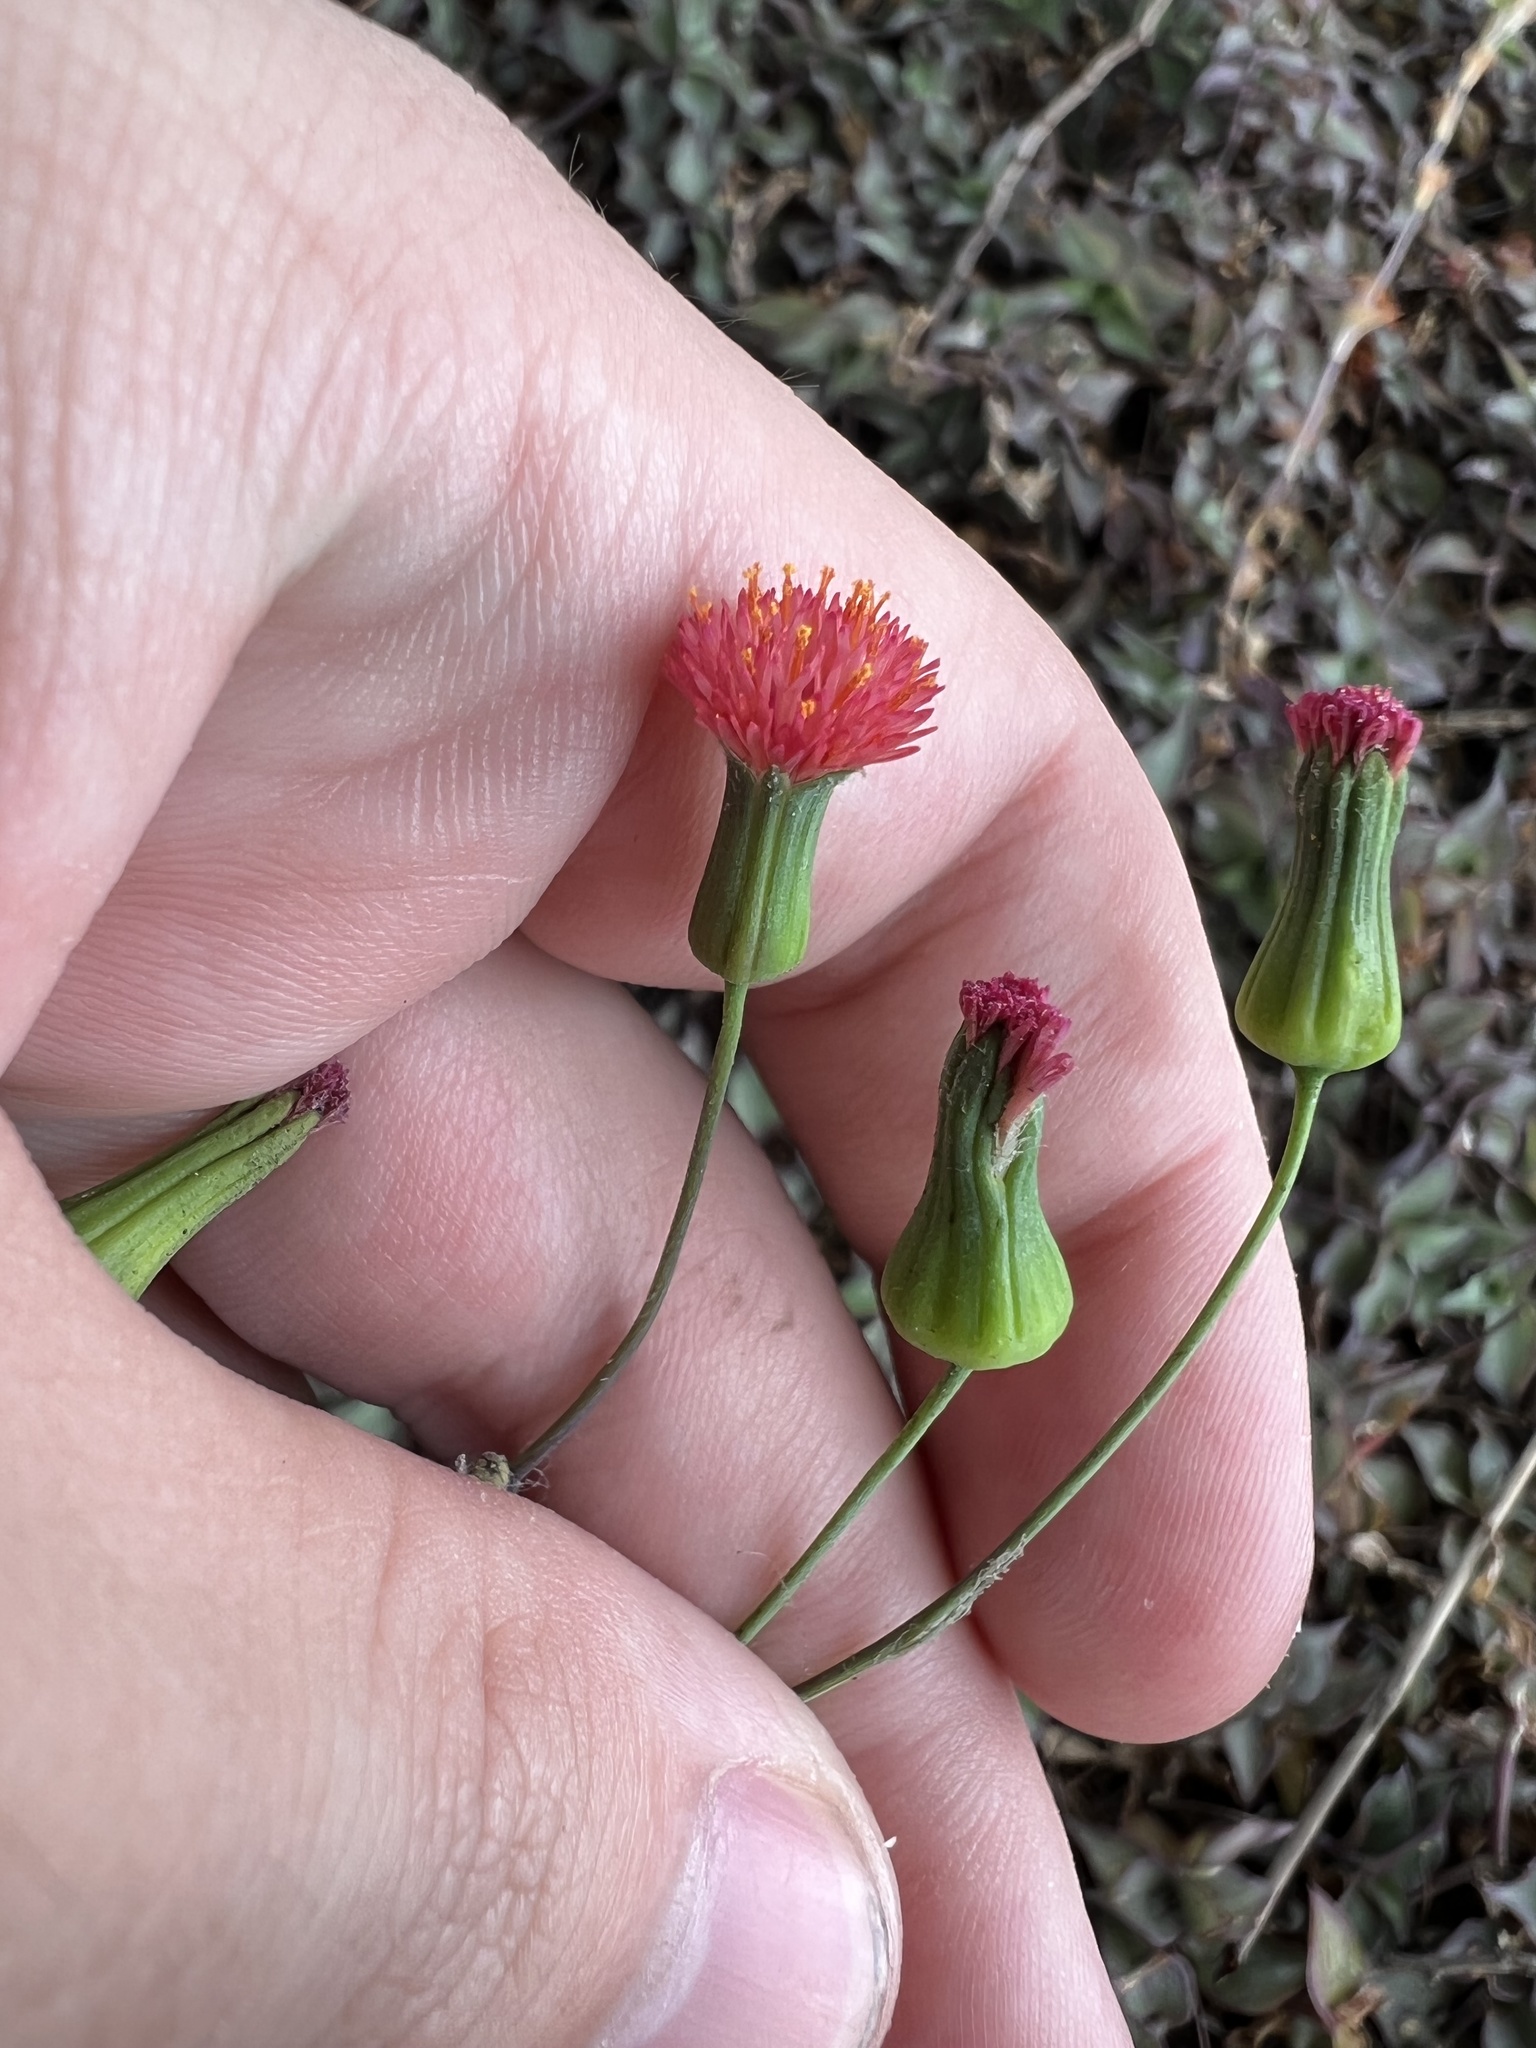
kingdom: Plantae
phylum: Tracheophyta
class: Magnoliopsida
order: Asterales
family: Asteraceae
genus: Emilia
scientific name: Emilia fosbergii
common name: Florida tasselflower
